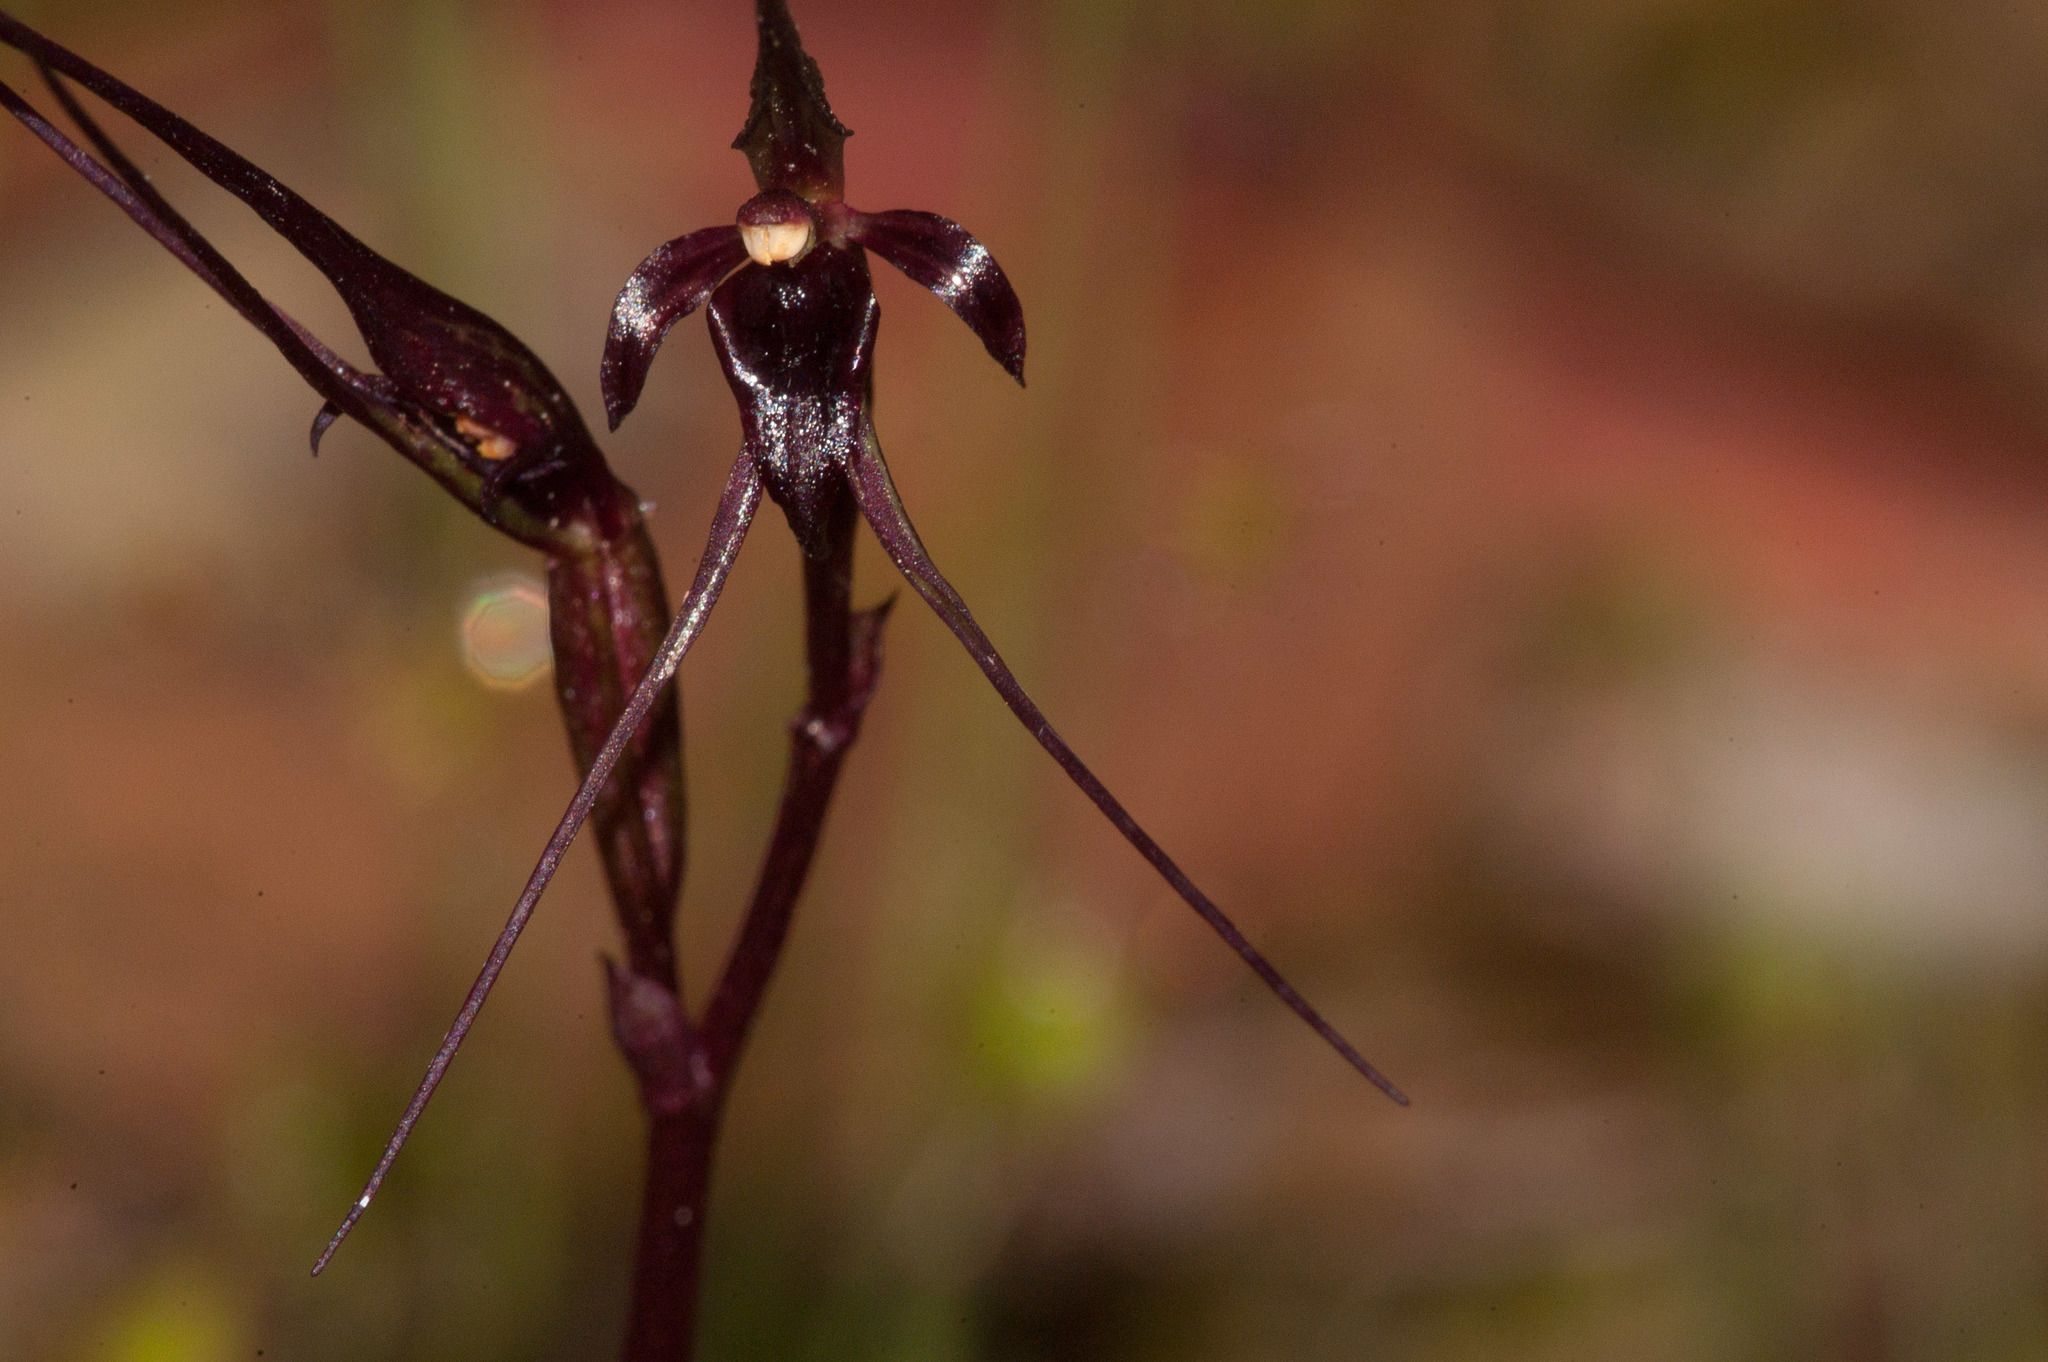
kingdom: Plantae
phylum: Tracheophyta
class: Liliopsida
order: Asparagales
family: Orchidaceae
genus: Acianthus
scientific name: Acianthus caudatus
